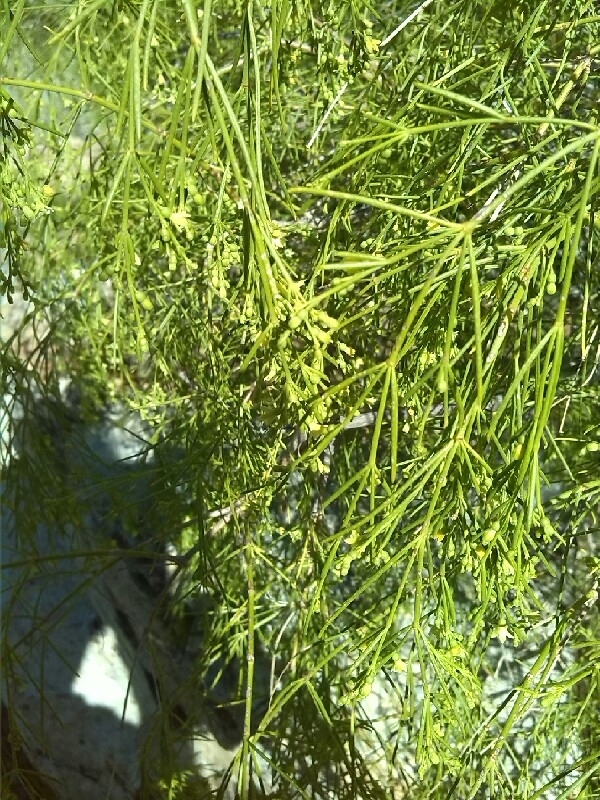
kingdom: Plantae
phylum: Tracheophyta
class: Magnoliopsida
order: Gentianales
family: Rubiaceae
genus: Plocama
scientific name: Plocama pendula
